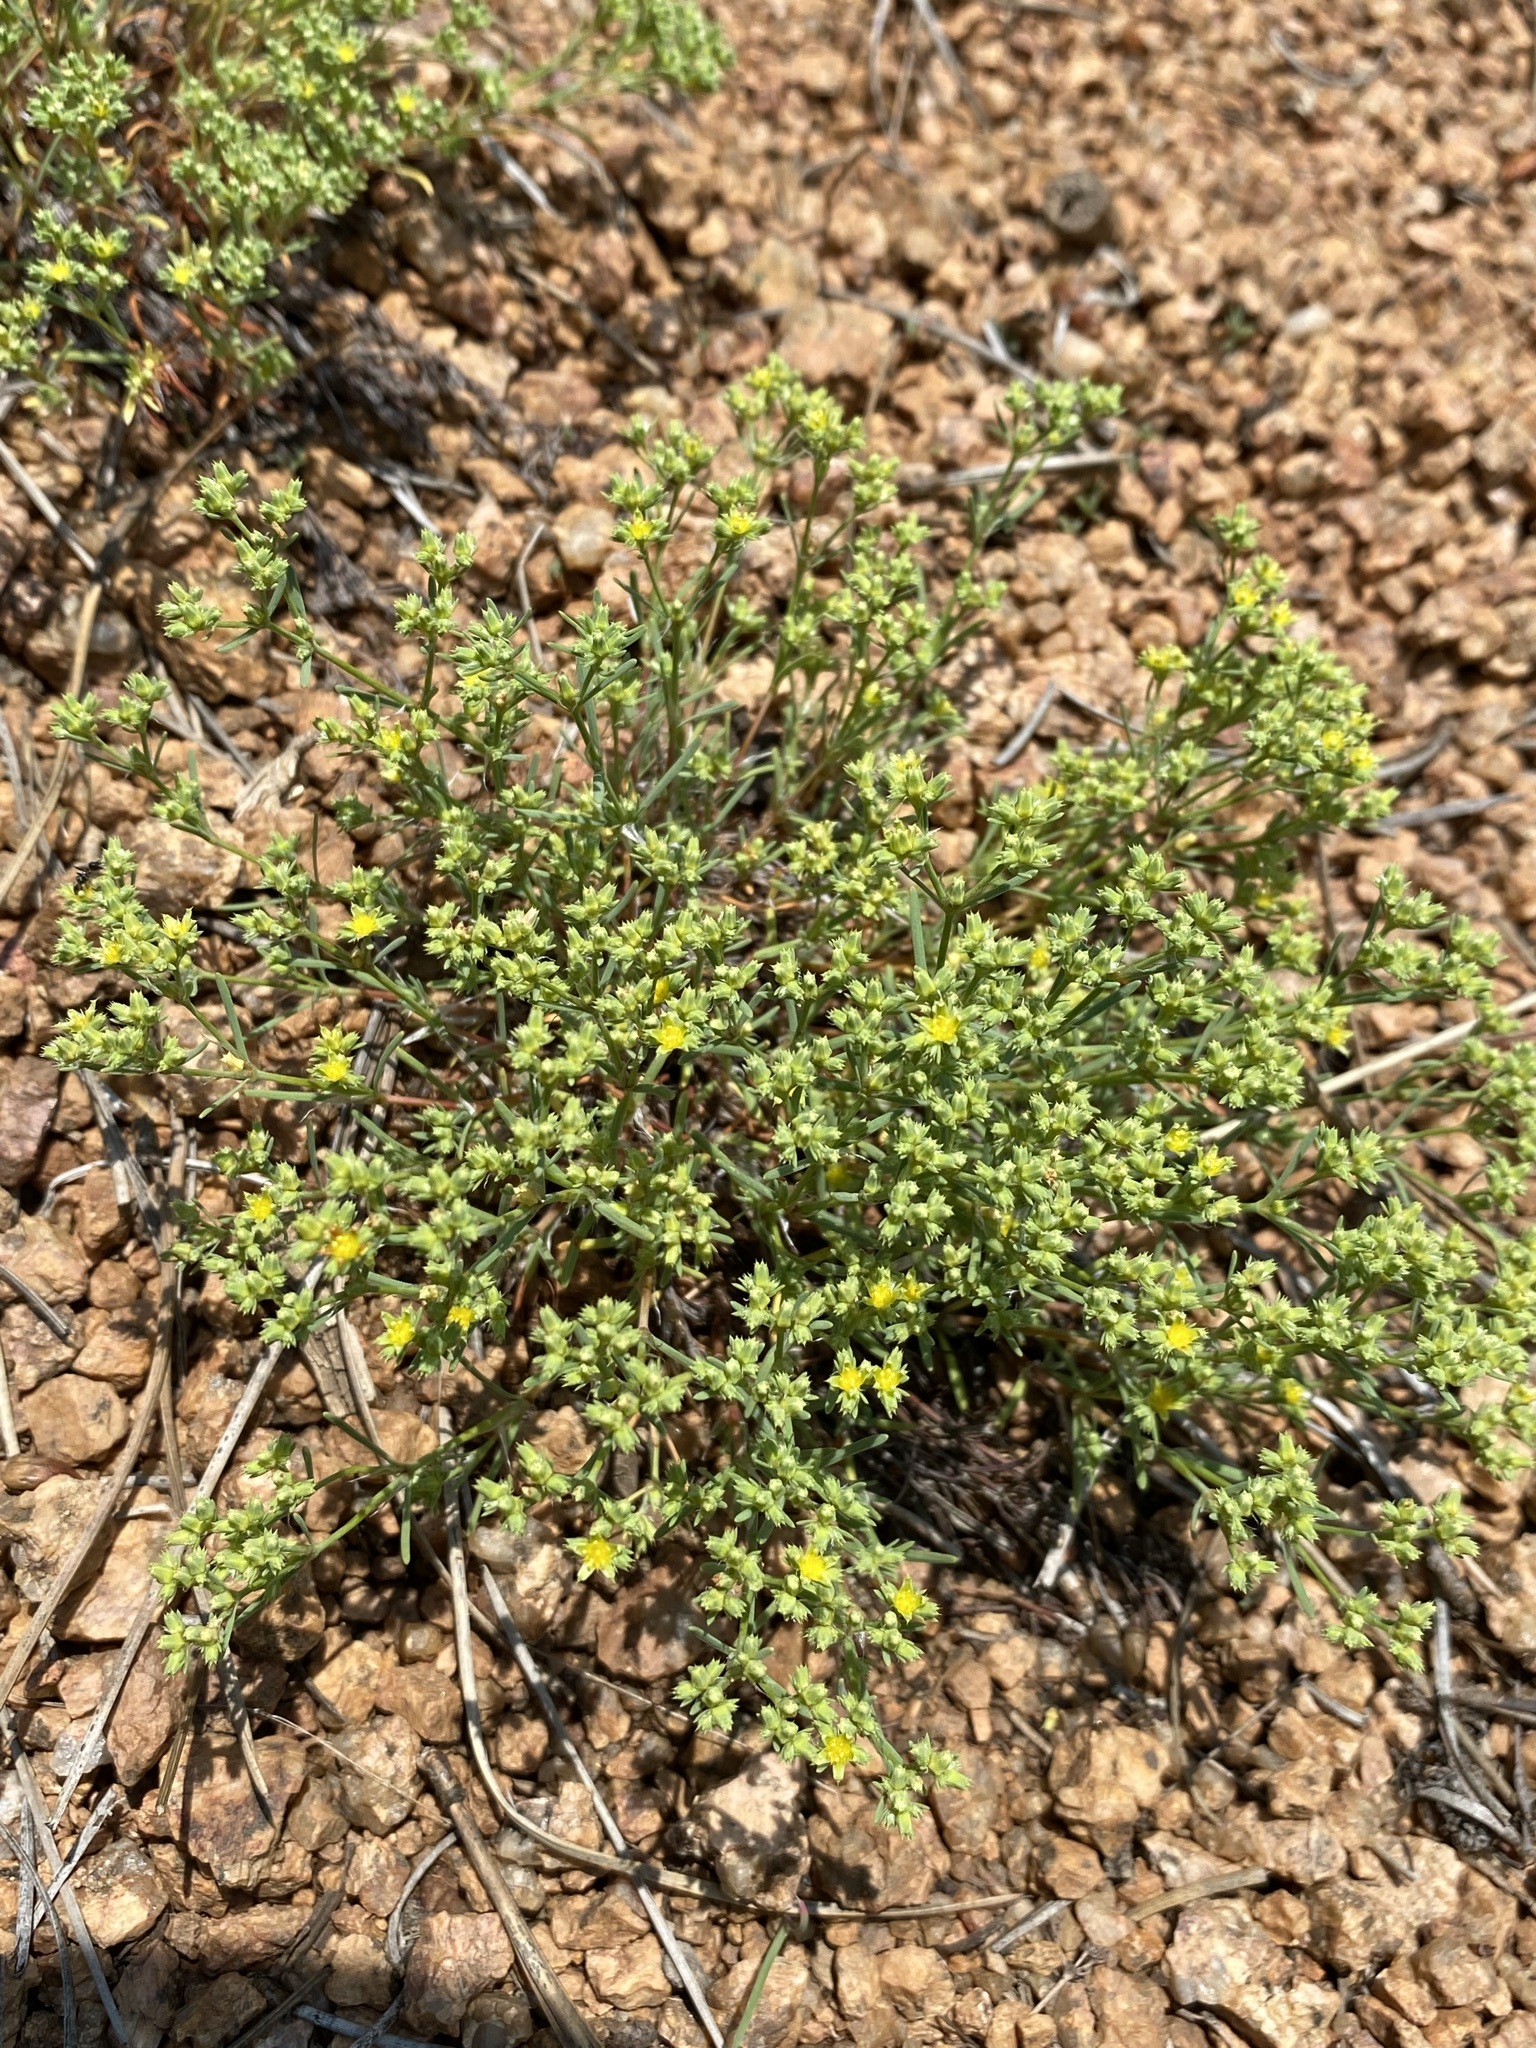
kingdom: Plantae
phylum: Tracheophyta
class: Magnoliopsida
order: Caryophyllales
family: Caryophyllaceae
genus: Paronychia
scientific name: Paronychia jamesii
